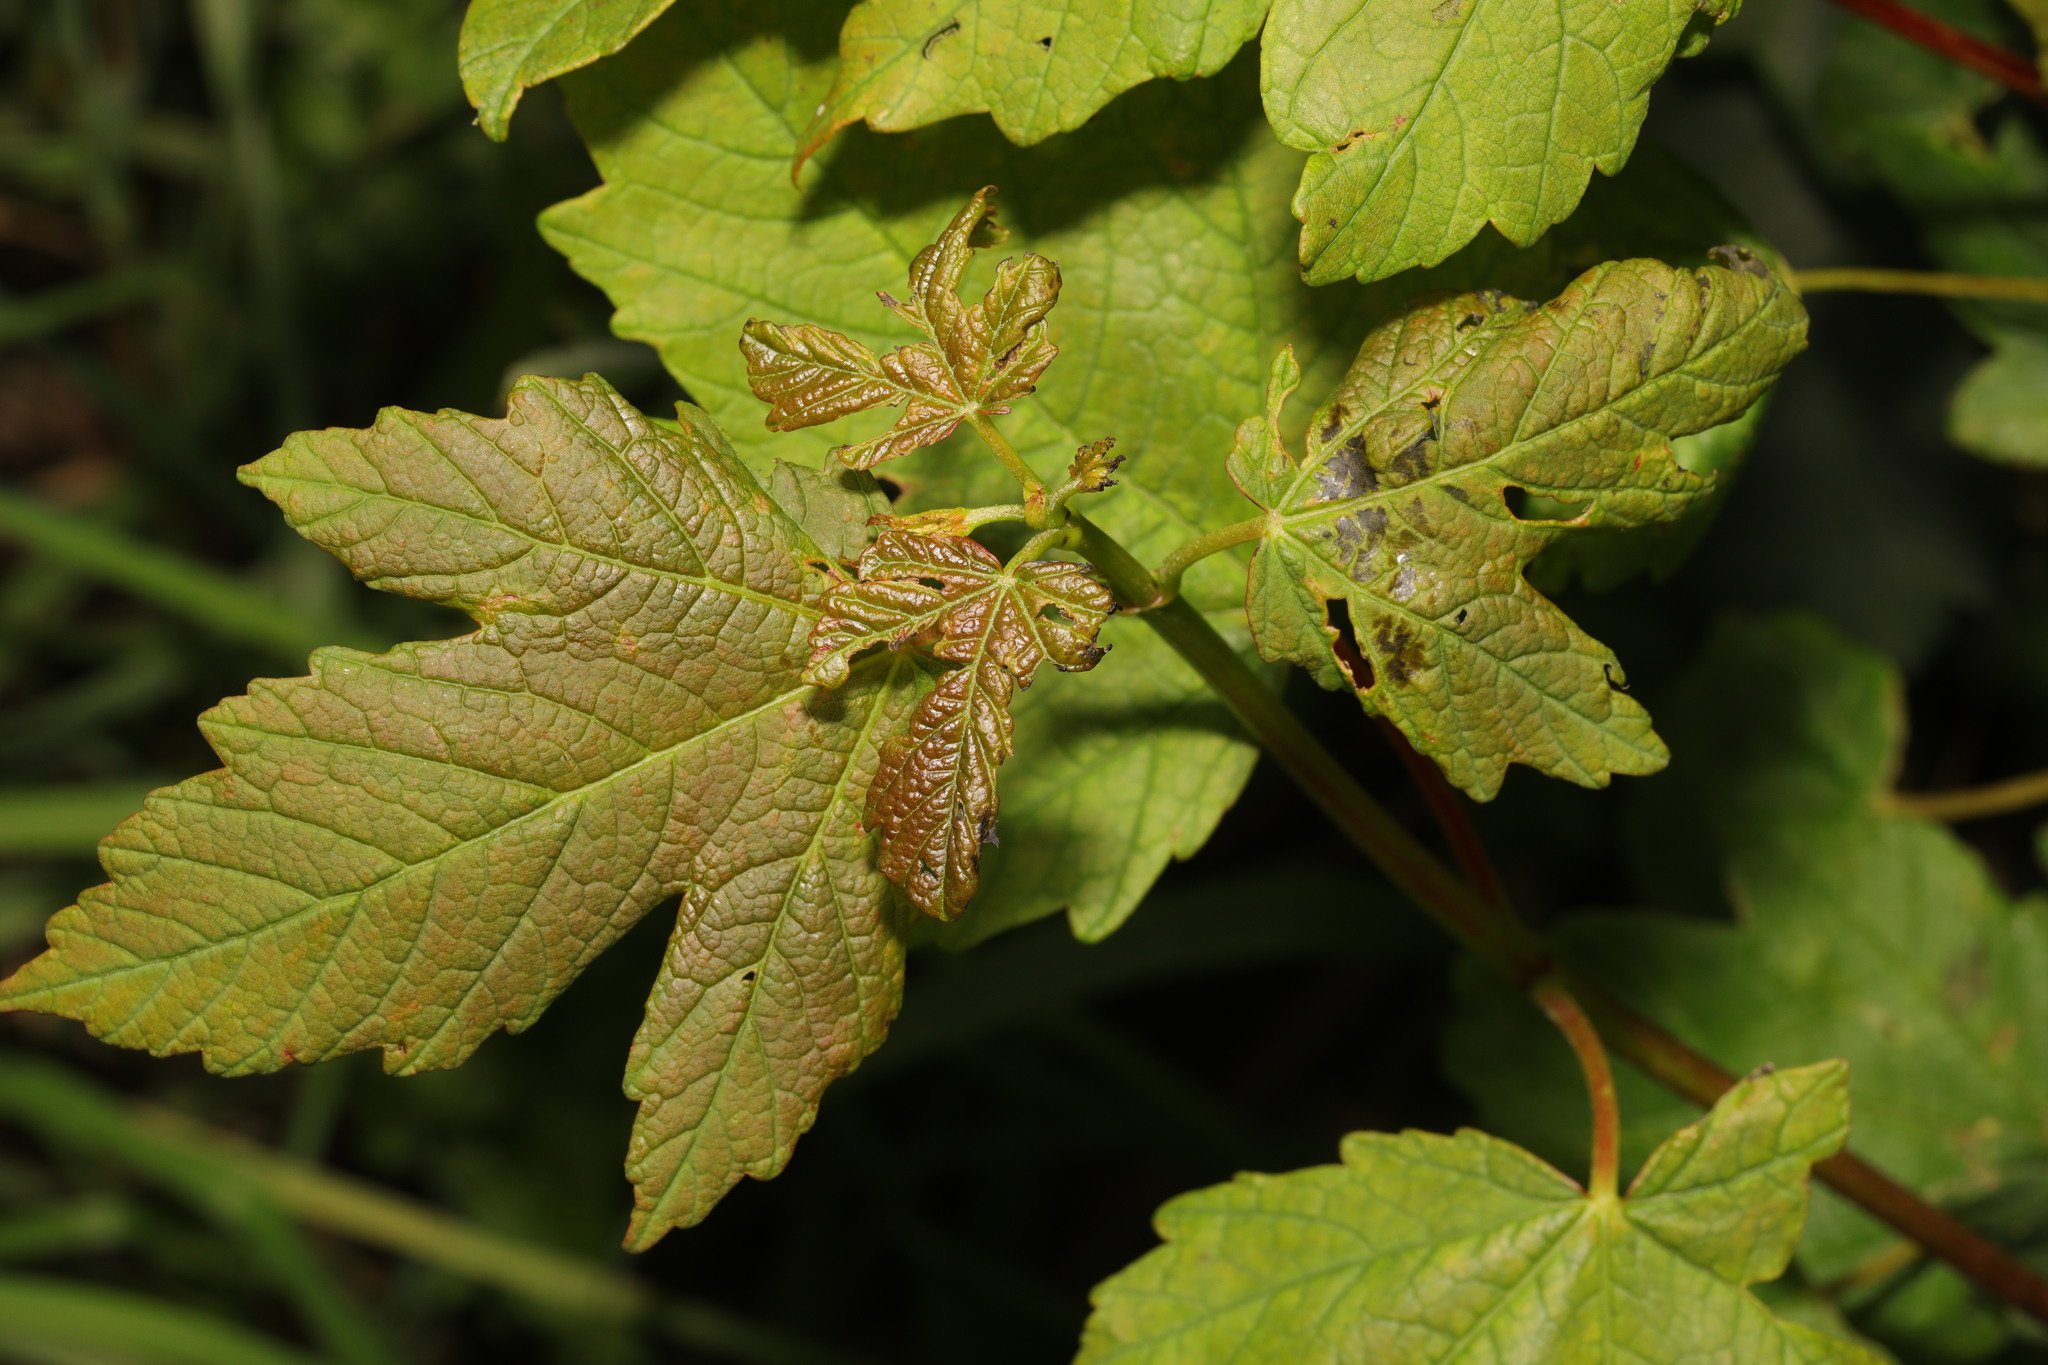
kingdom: Plantae
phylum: Tracheophyta
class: Magnoliopsida
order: Sapindales
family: Sapindaceae
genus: Acer
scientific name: Acer pseudoplatanus
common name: Sycamore
